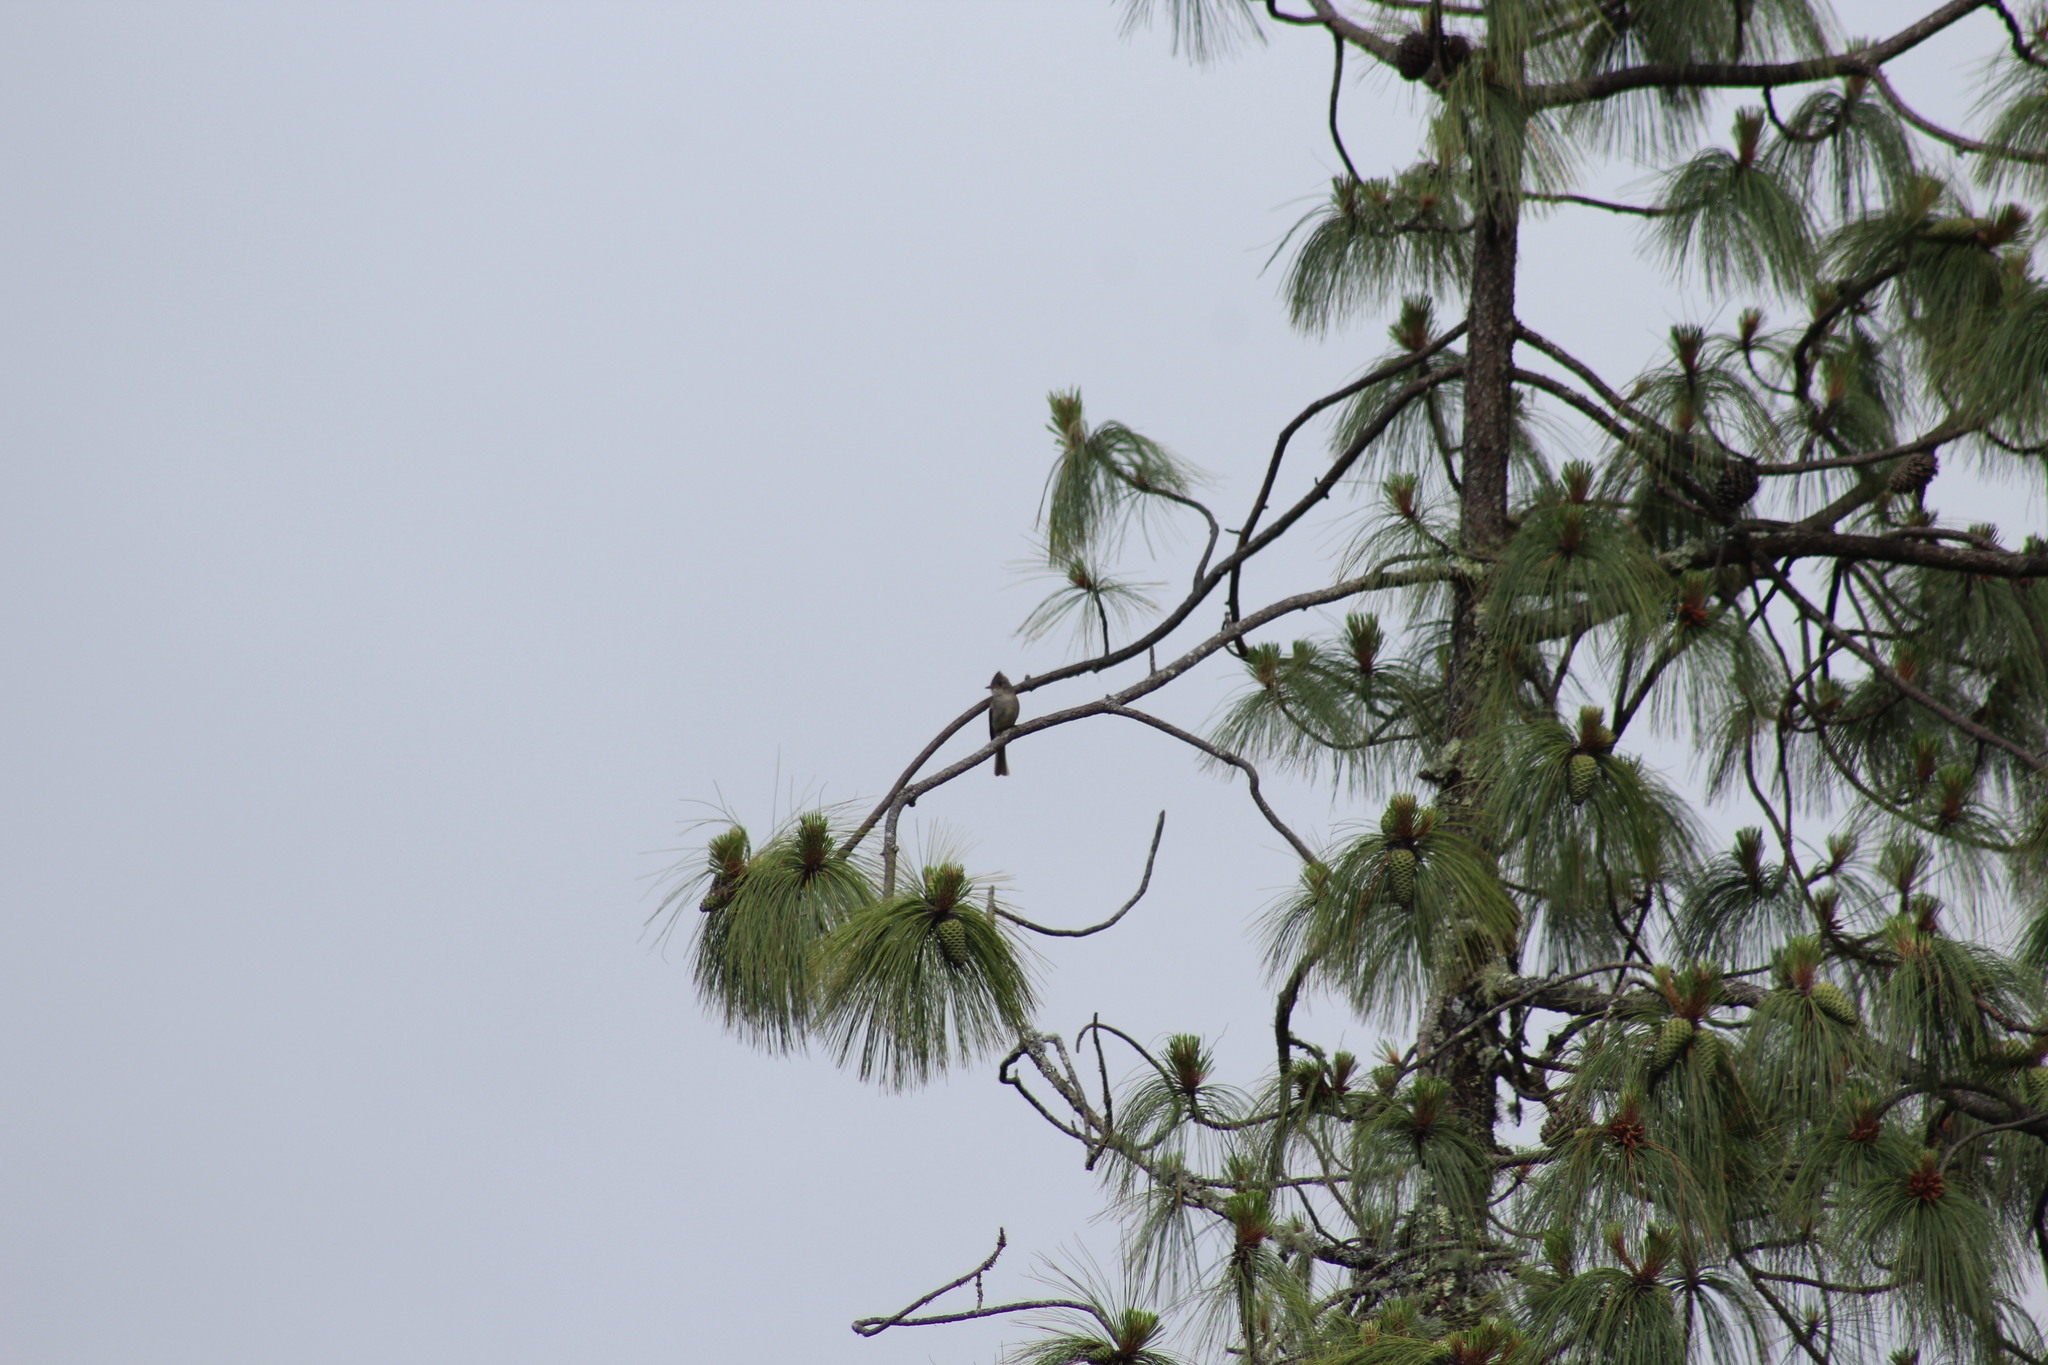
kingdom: Animalia
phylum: Chordata
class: Aves
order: Passeriformes
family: Tyrannidae
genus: Contopus
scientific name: Contopus pertinax
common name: Greater pewee
